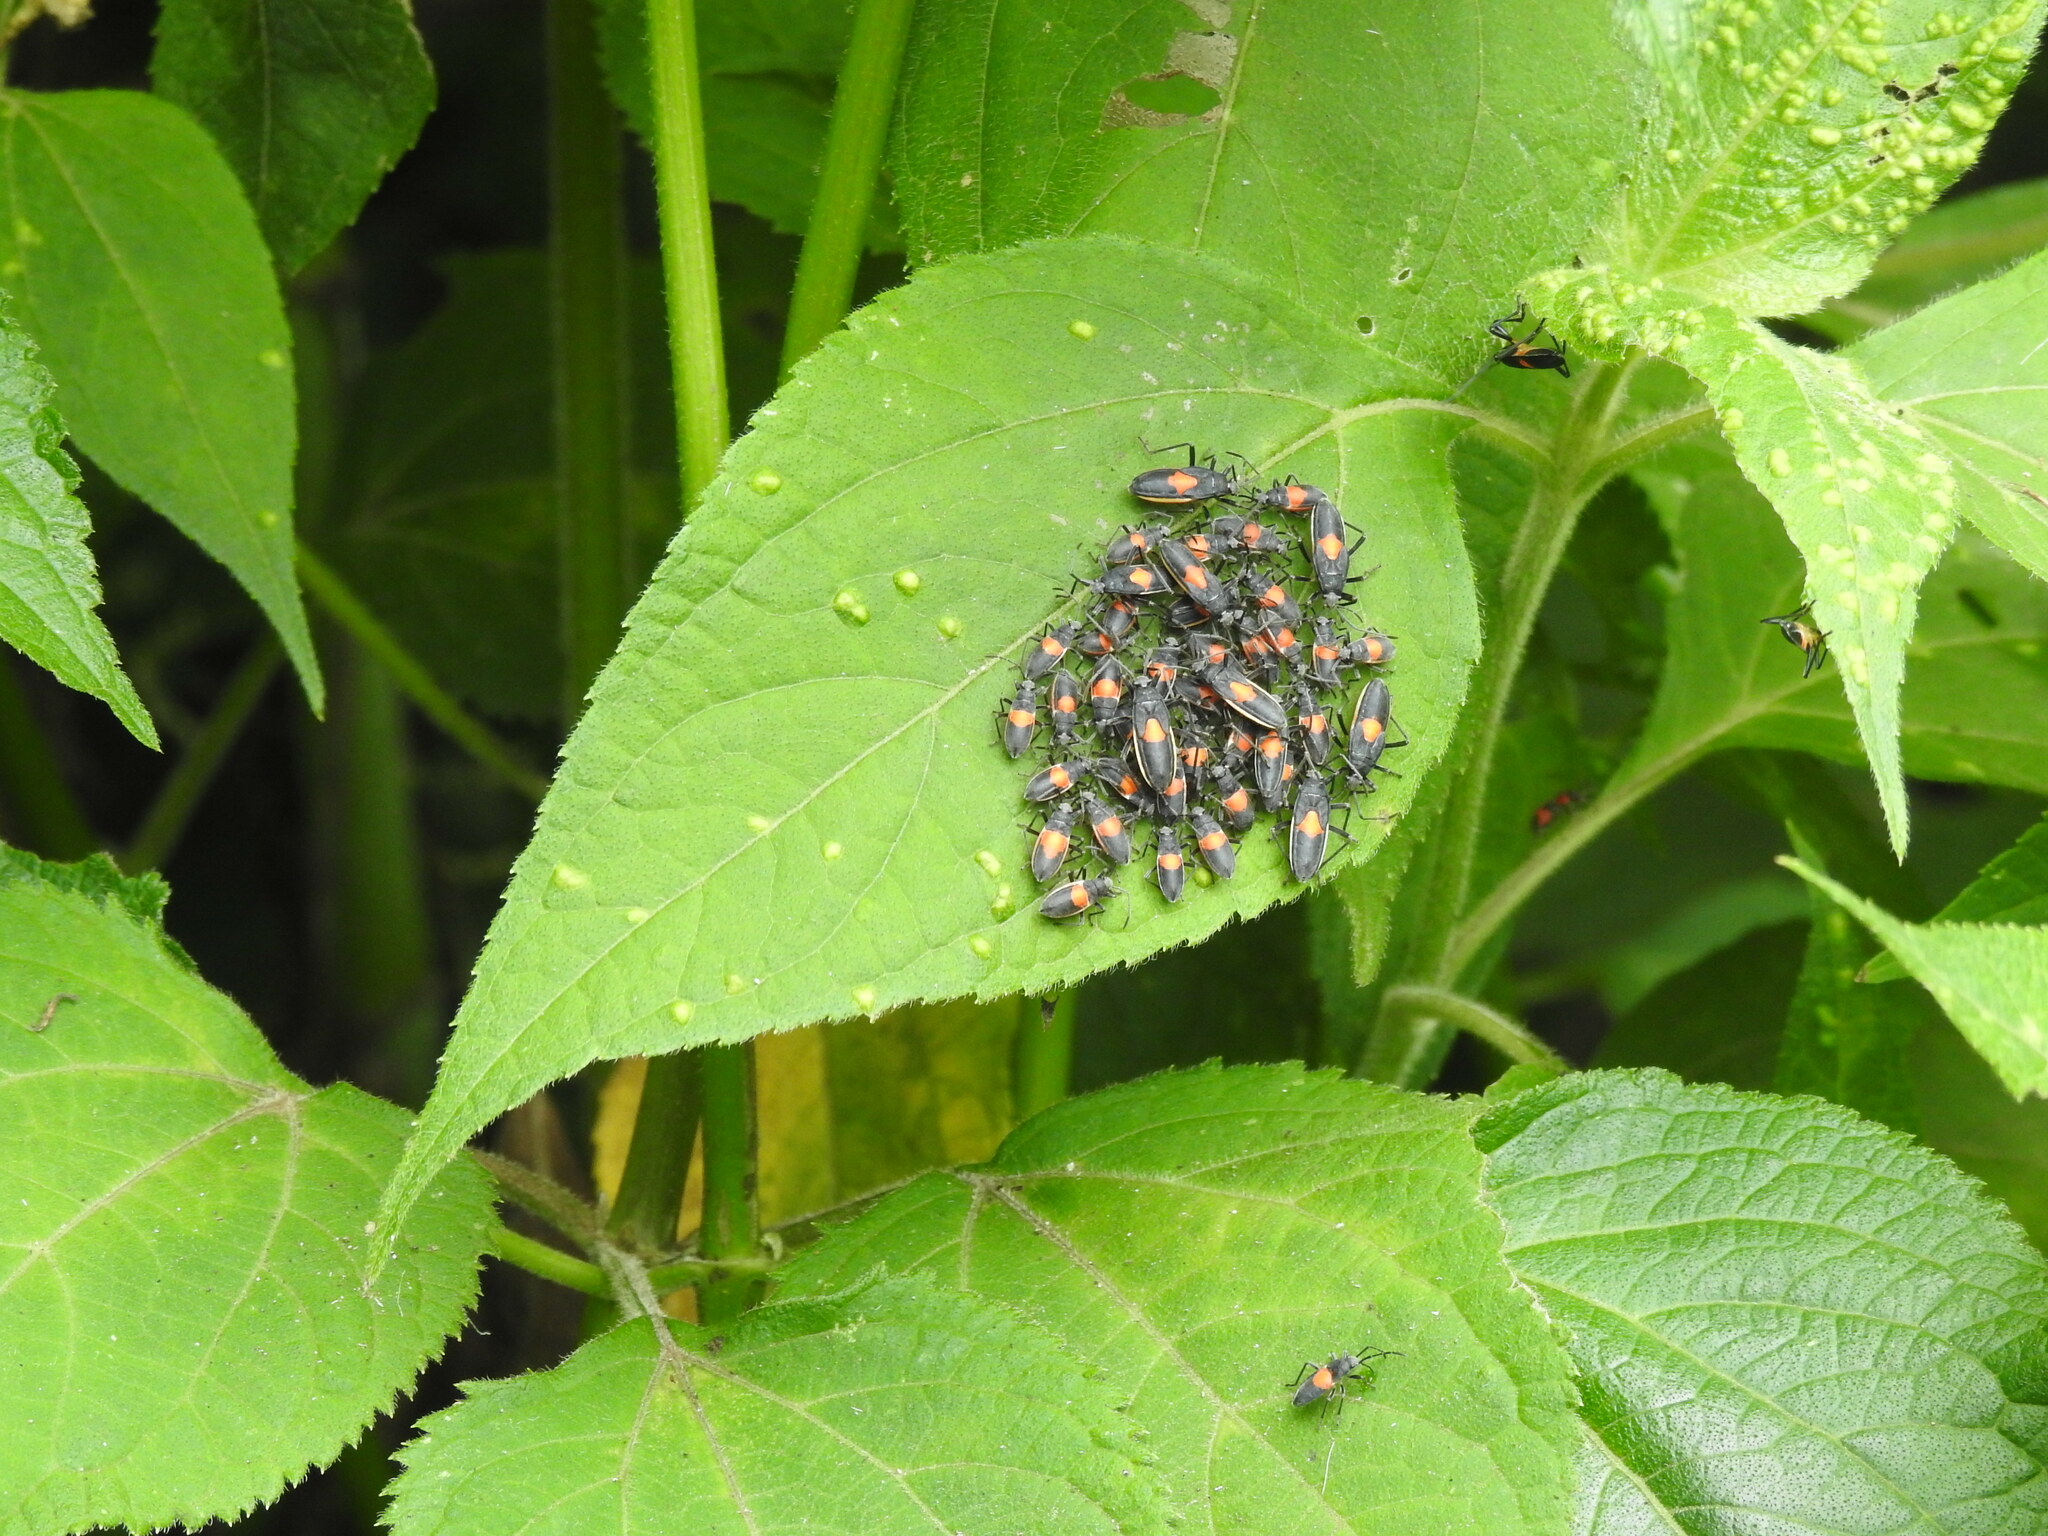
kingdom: Animalia
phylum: Arthropoda
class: Insecta
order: Hemiptera
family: Largidae
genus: Stenomacra
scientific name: Stenomacra marginella
